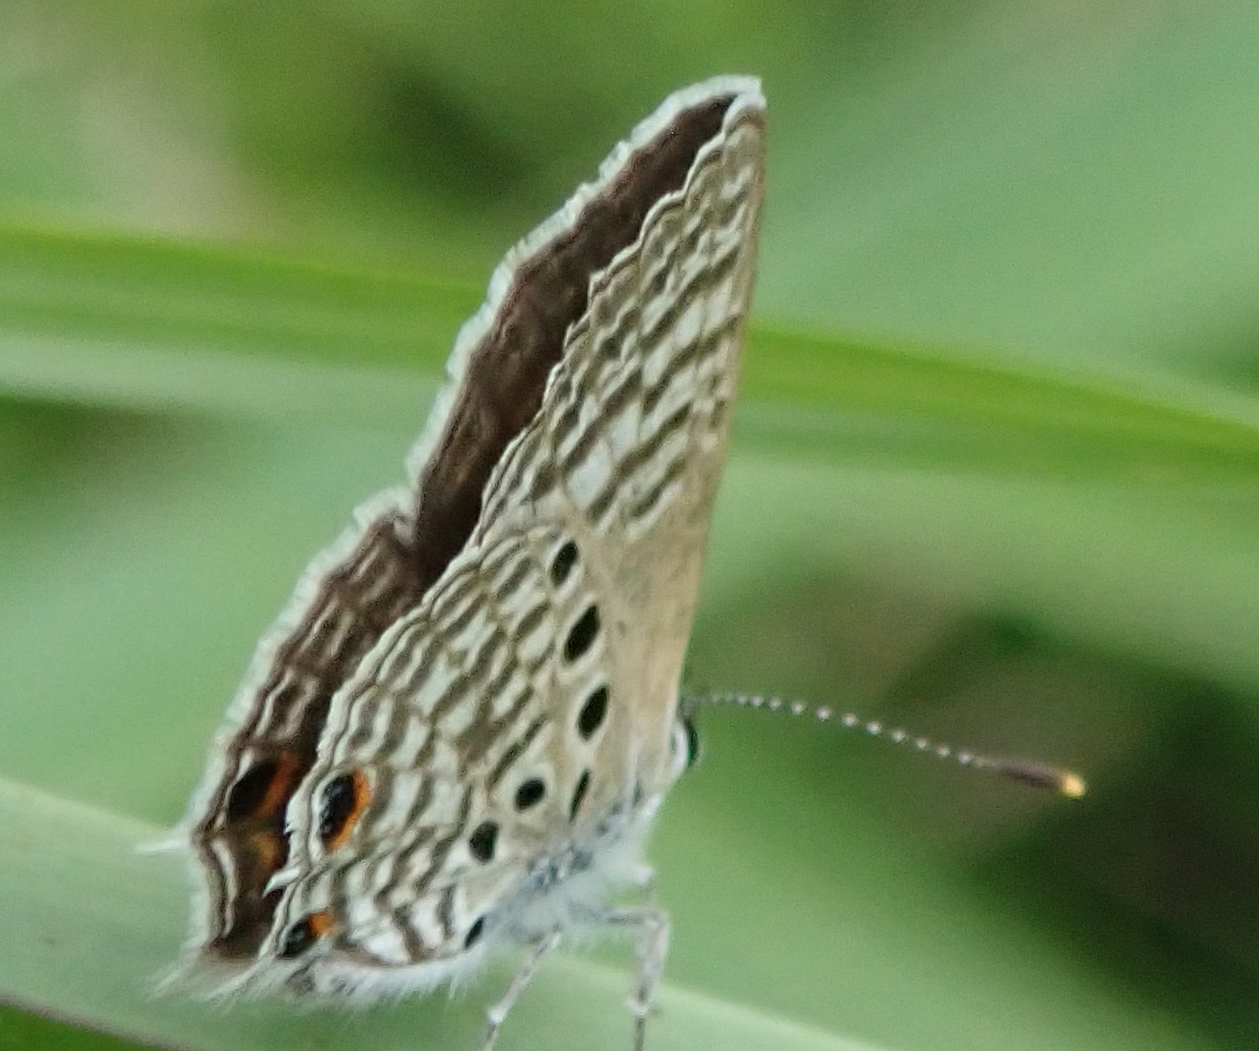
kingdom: Animalia
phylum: Arthropoda
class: Insecta
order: Lepidoptera
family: Lycaenidae
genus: Anthene
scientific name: Anthene amarah
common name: Black-striped hairtail
